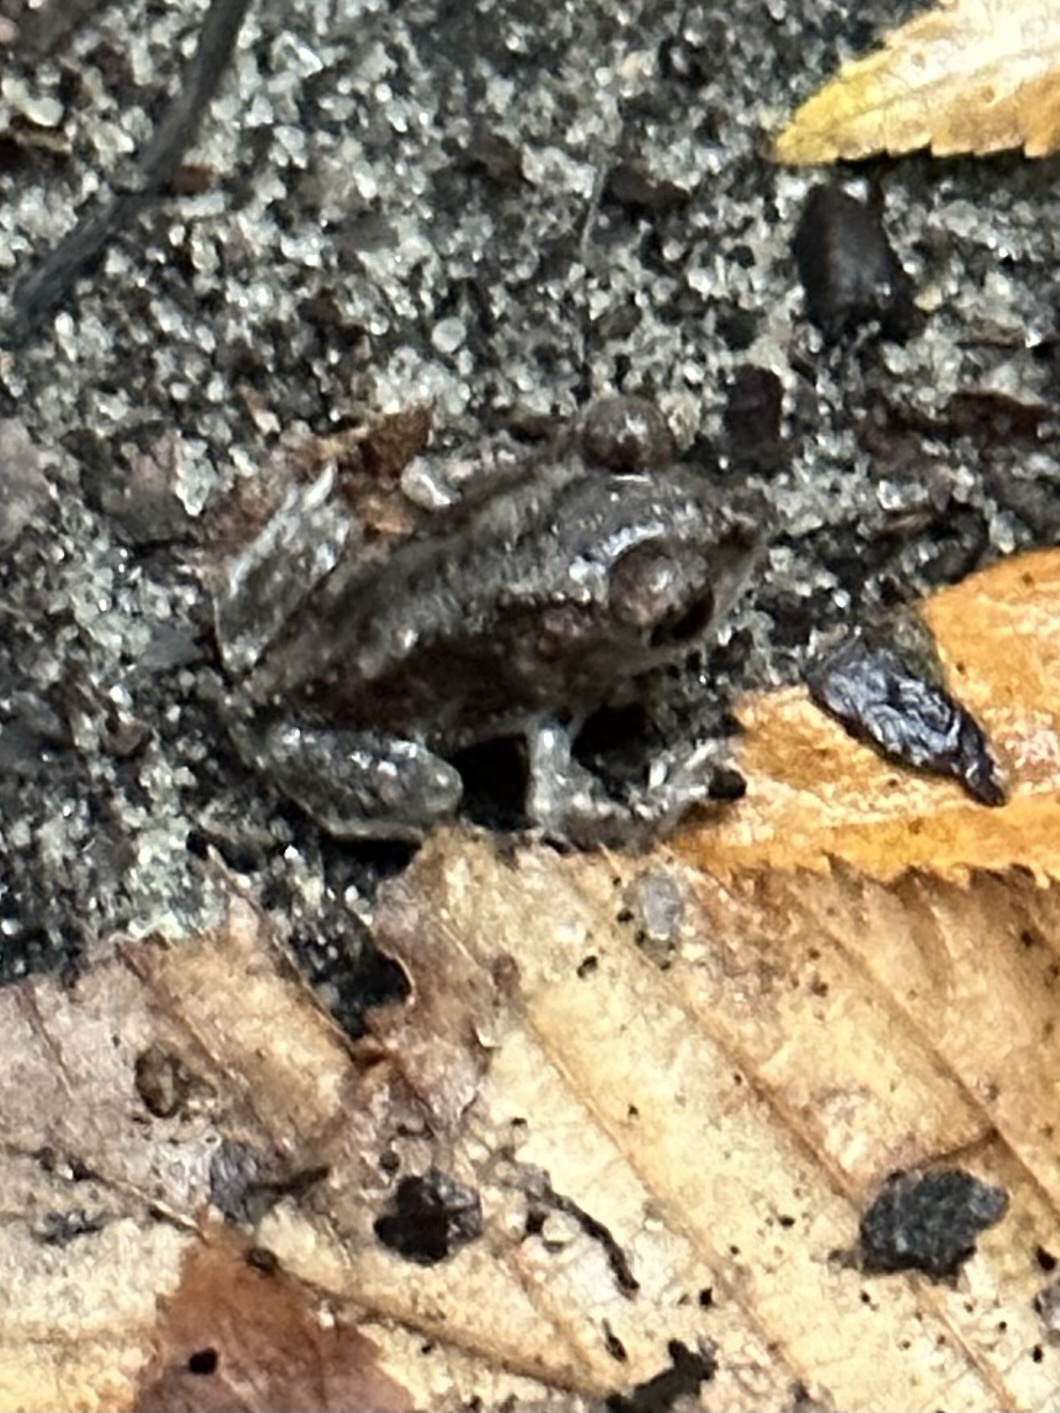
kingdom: Animalia
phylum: Chordata
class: Amphibia
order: Anura
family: Scaphiopodidae
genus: Scaphiopus
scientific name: Scaphiopus holbrookii
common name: Eastern spadefoot toad
